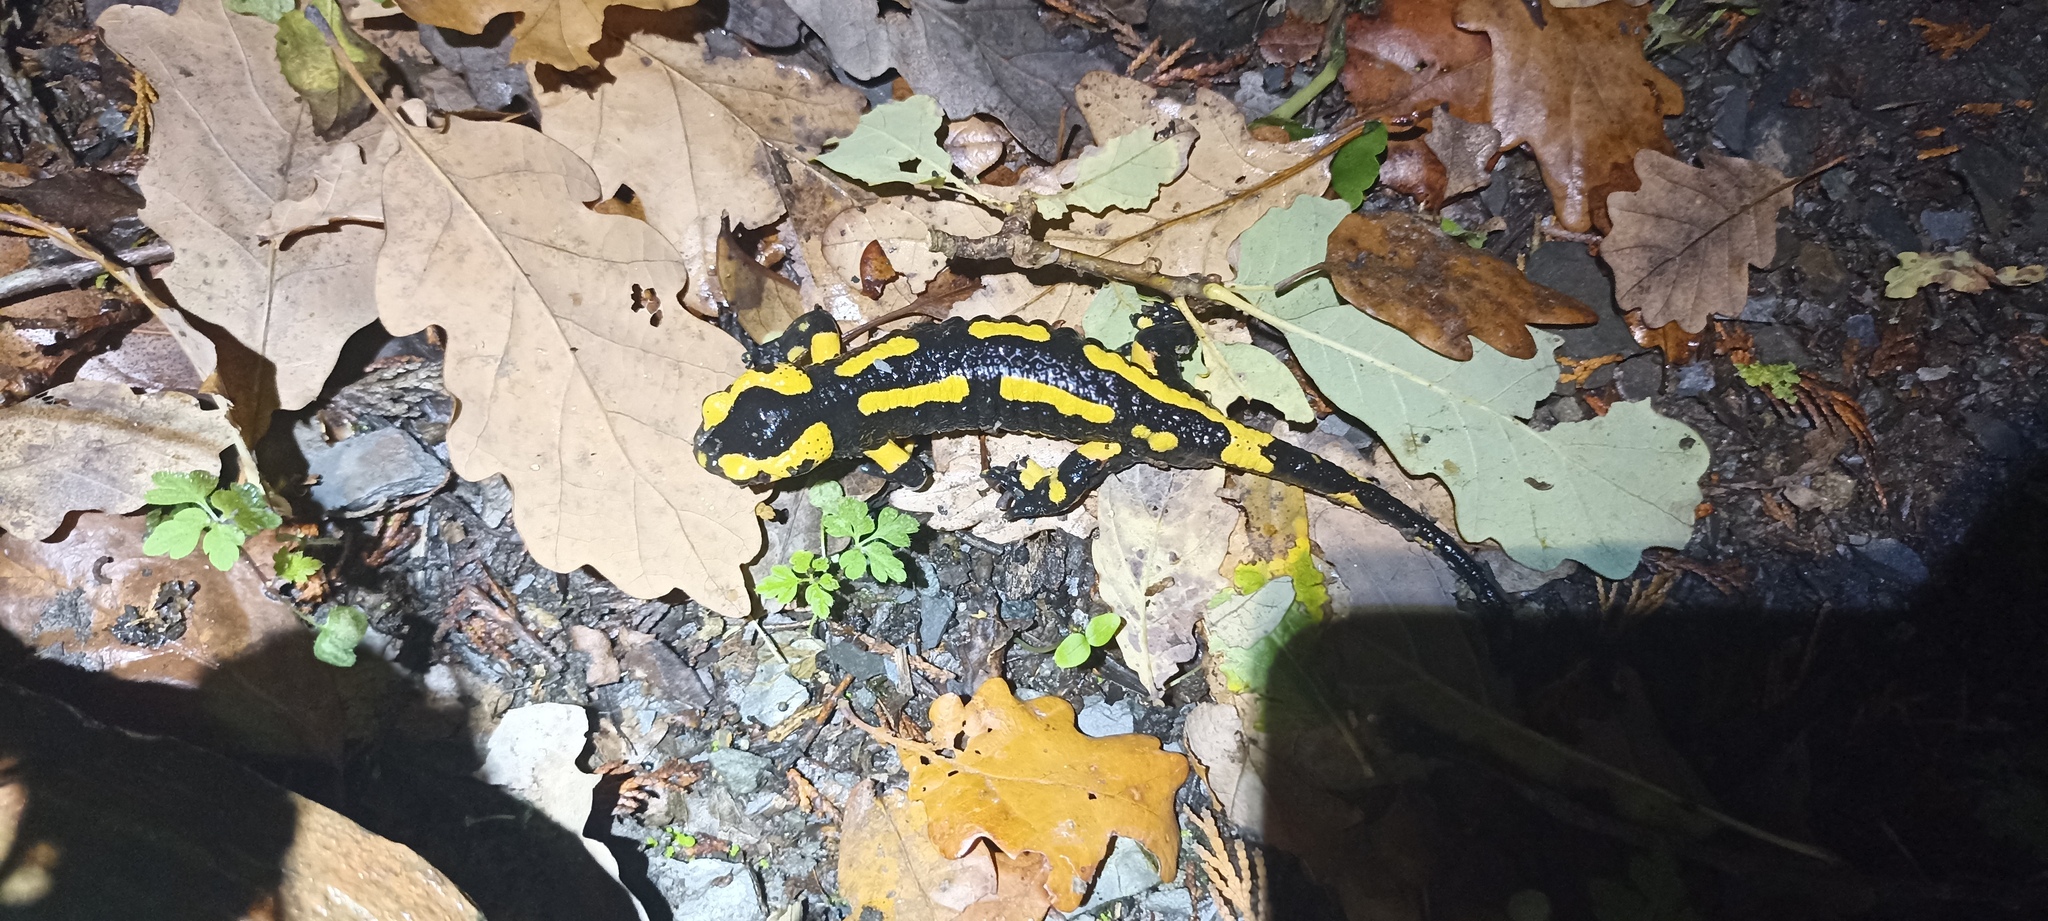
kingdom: Animalia
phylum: Chordata
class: Amphibia
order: Caudata
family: Salamandridae
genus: Salamandra
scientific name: Salamandra salamandra
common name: Fire salamander
